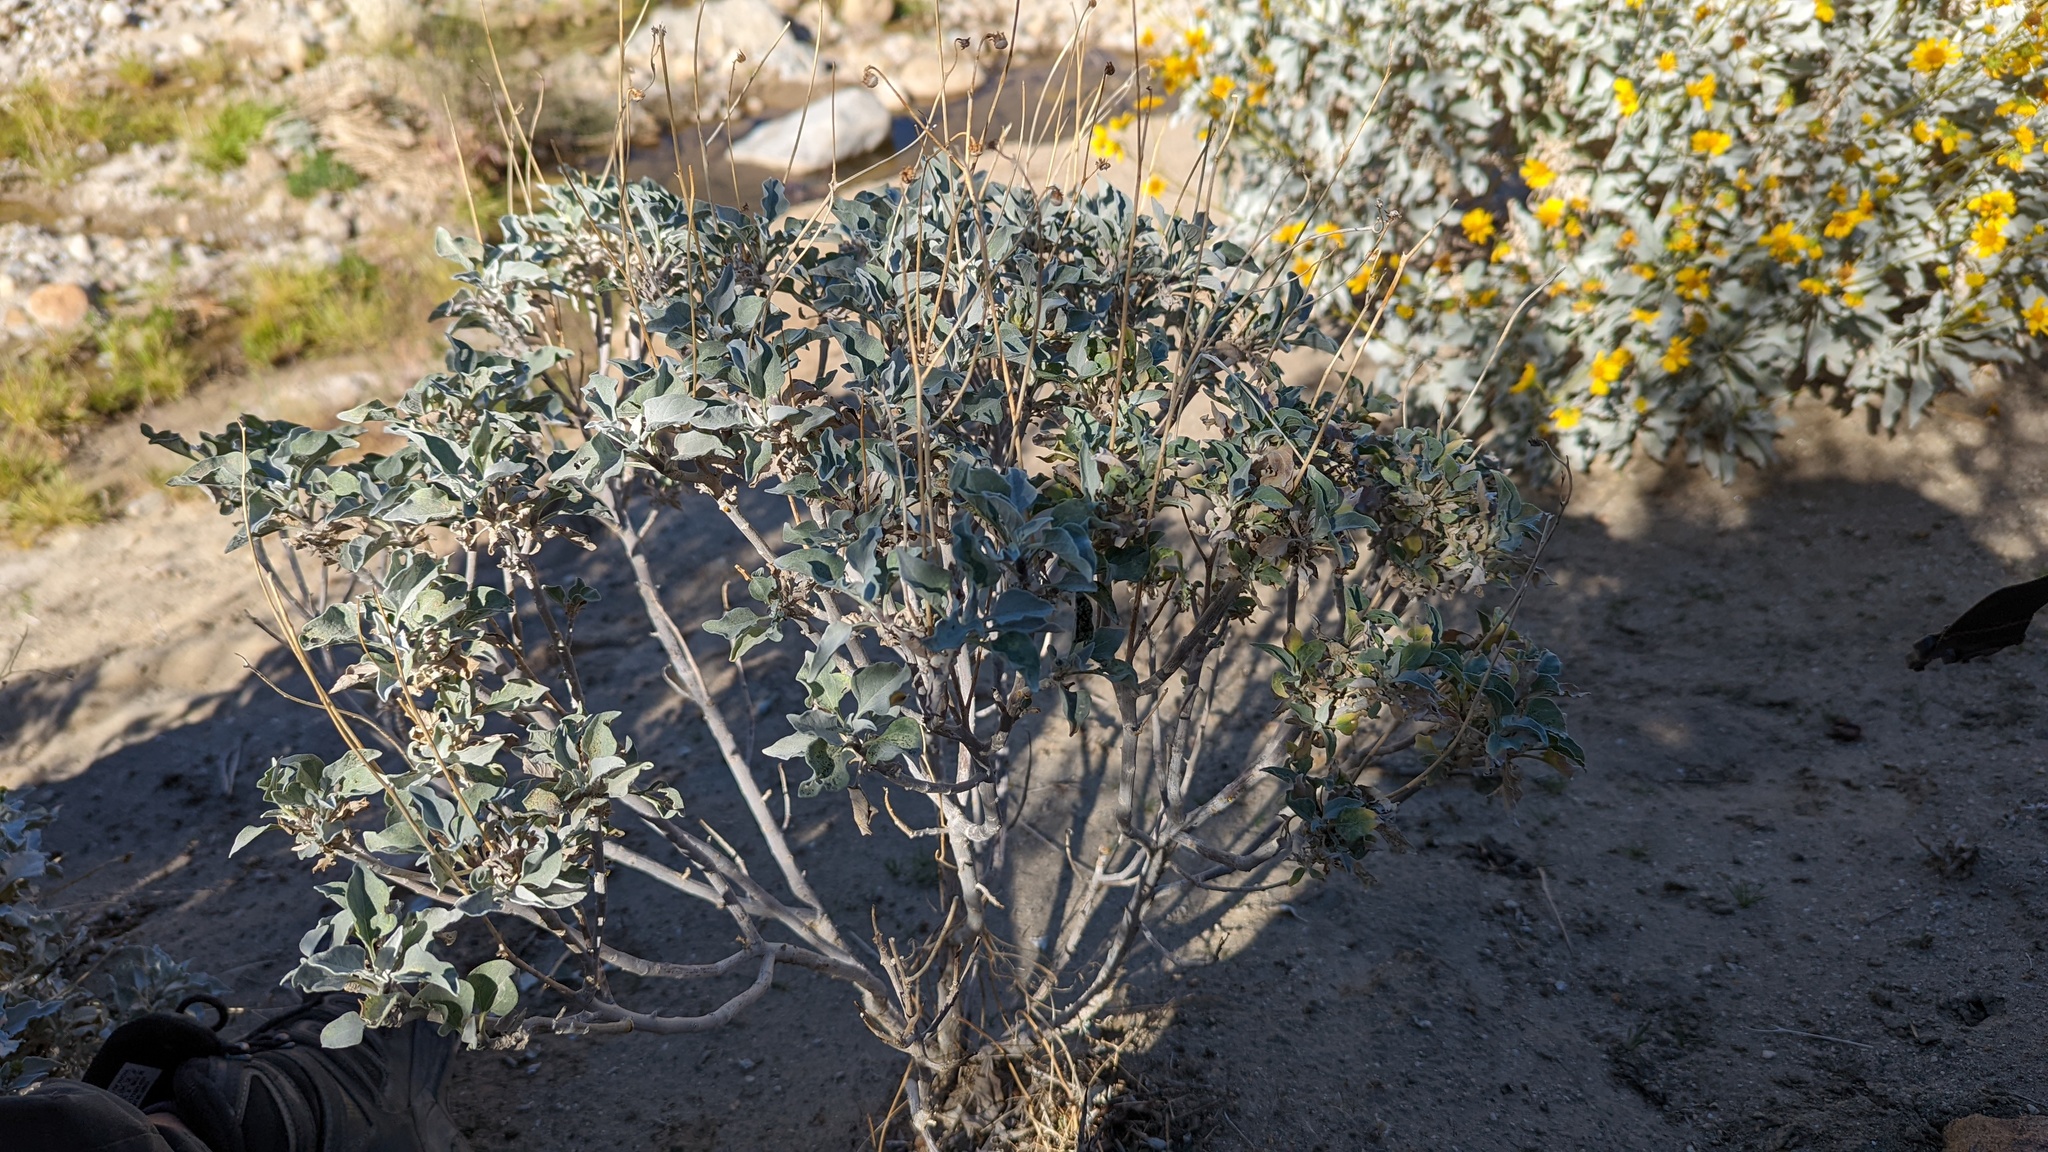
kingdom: Plantae
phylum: Tracheophyta
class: Magnoliopsida
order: Asterales
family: Asteraceae
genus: Encelia
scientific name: Encelia farinosa
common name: Brittlebush
